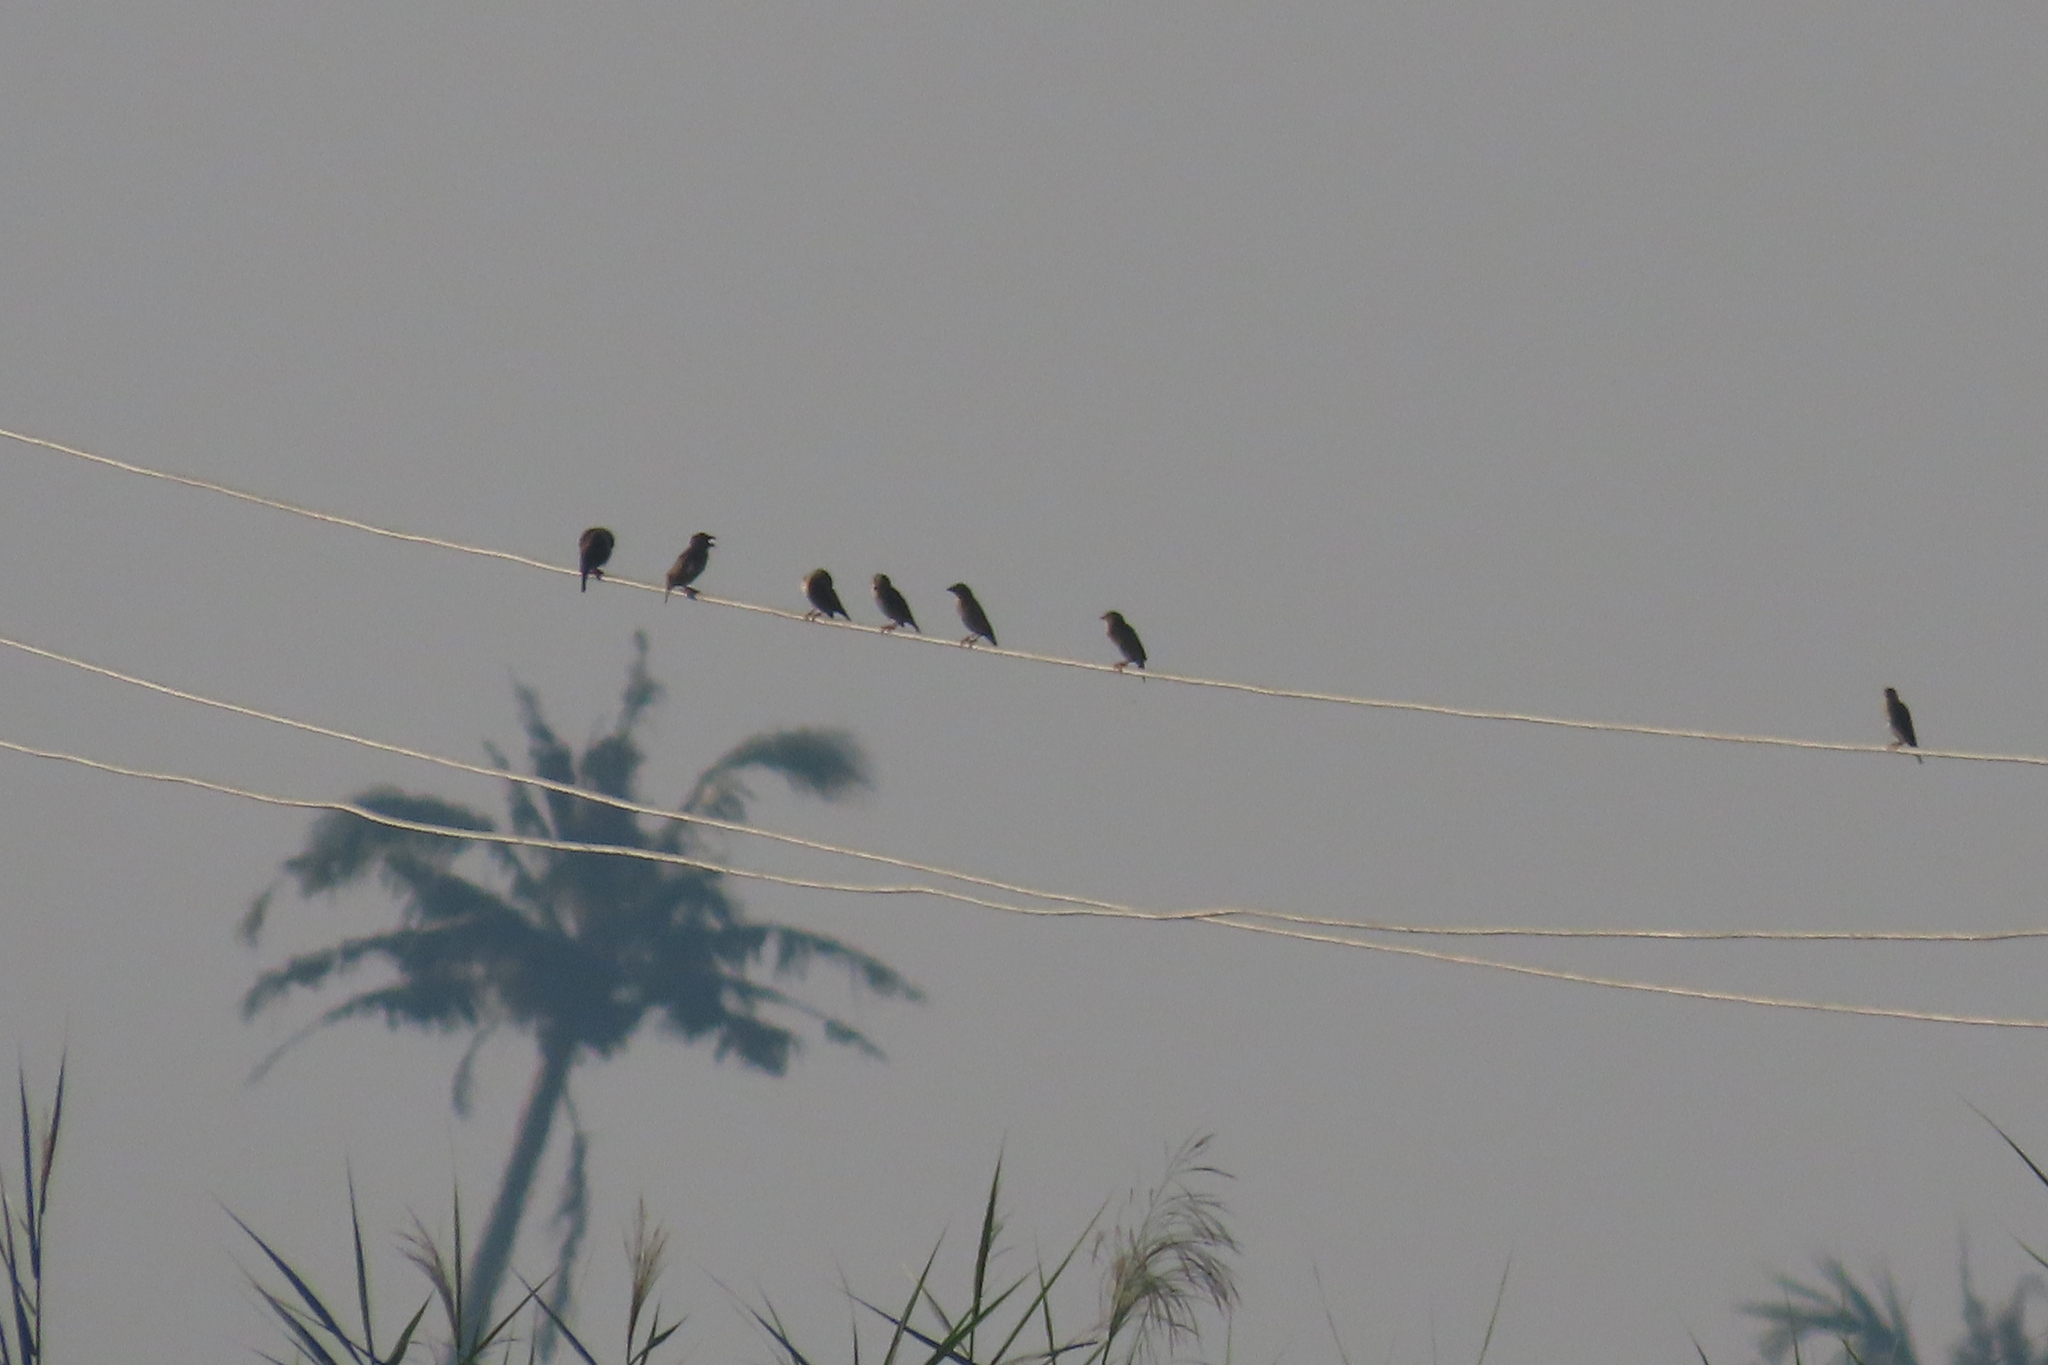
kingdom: Animalia
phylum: Chordata
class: Aves
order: Passeriformes
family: Ploceidae
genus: Ploceus
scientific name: Ploceus philippinus
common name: Baya weaver
